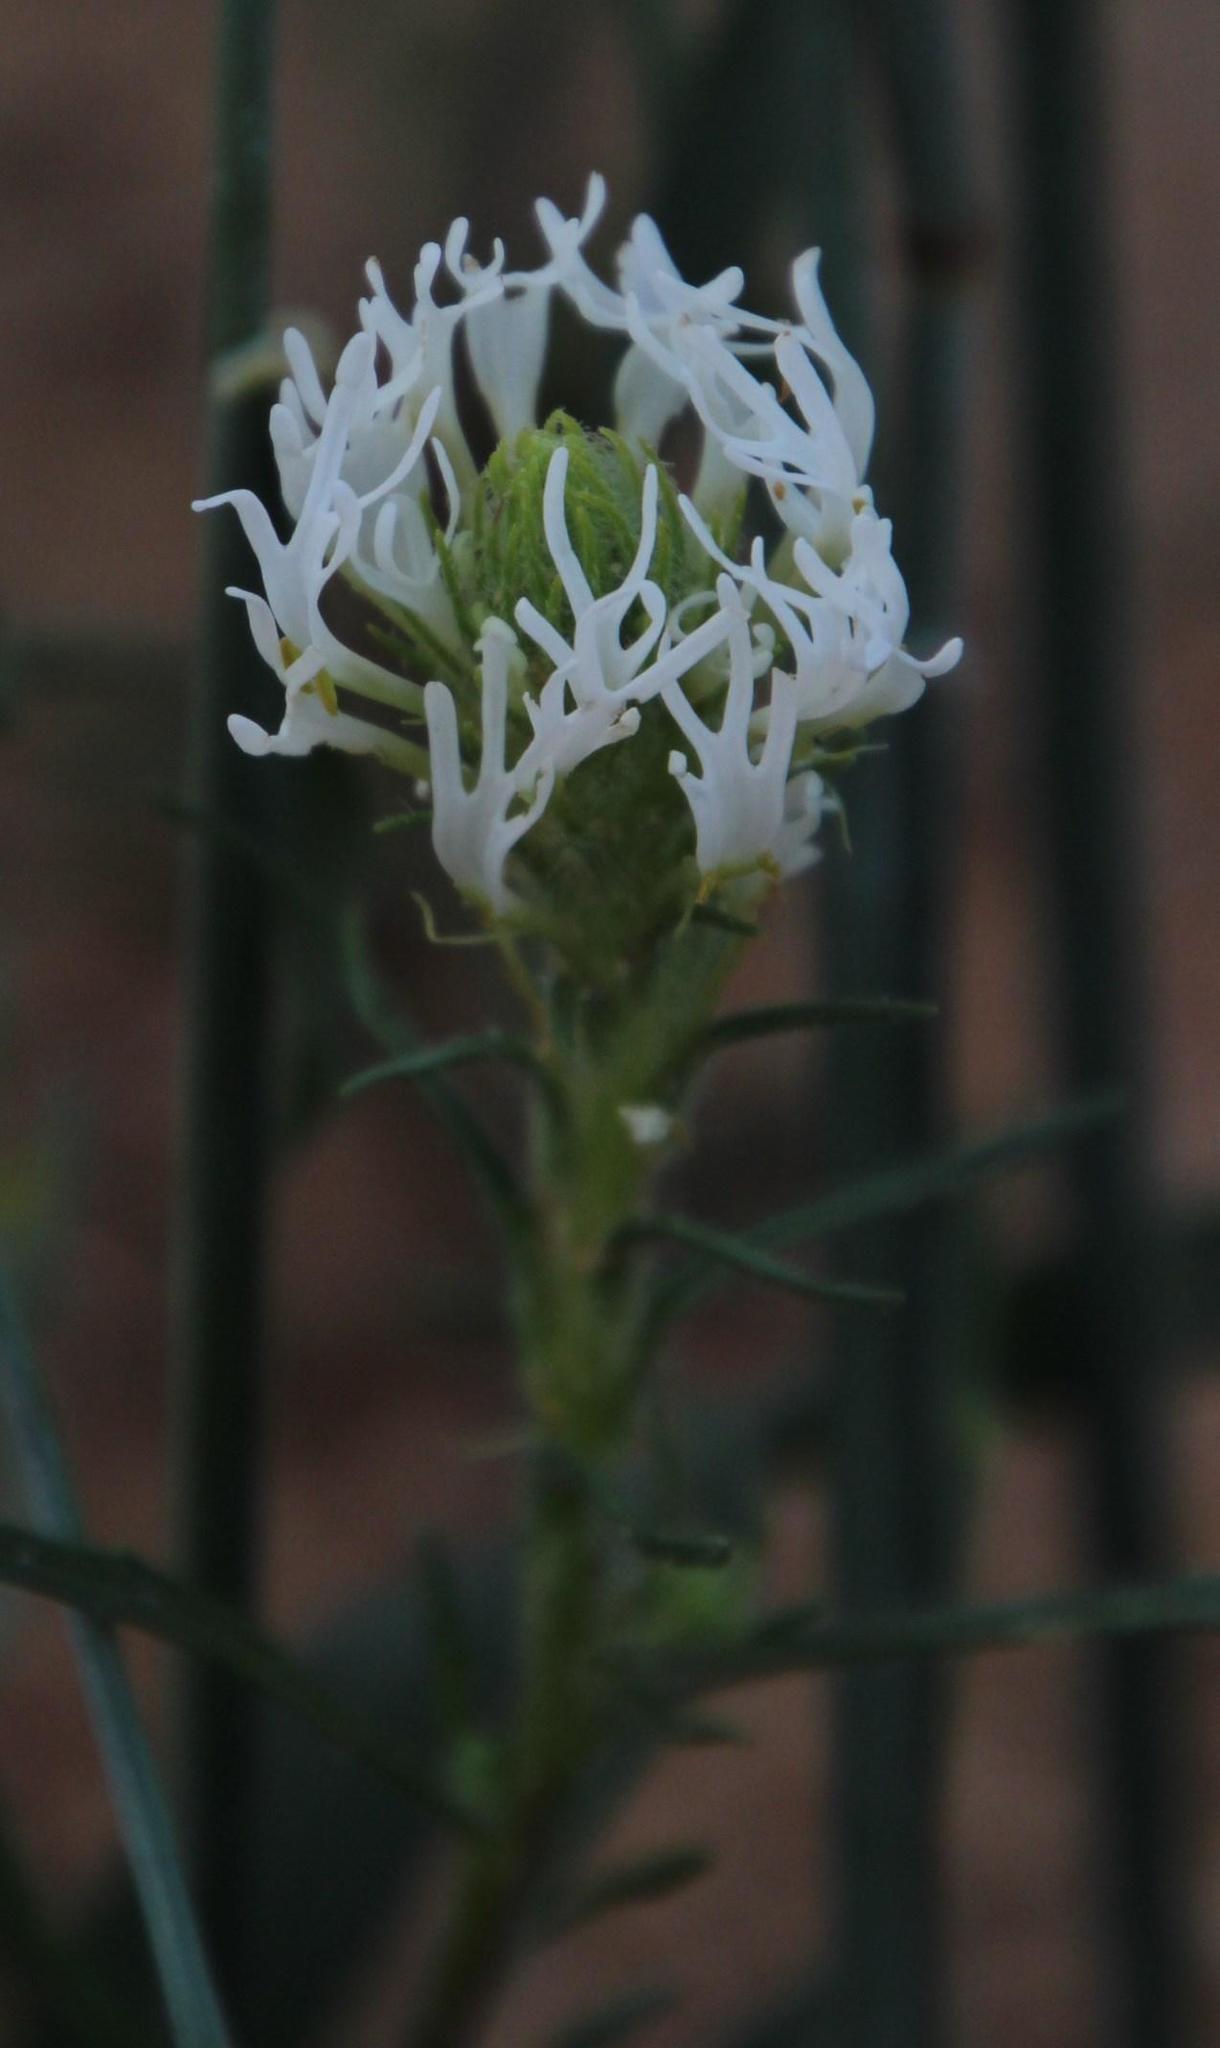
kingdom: Plantae
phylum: Tracheophyta
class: Magnoliopsida
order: Lamiales
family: Scrophulariaceae
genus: Dischisma
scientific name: Dischisma spicatum
